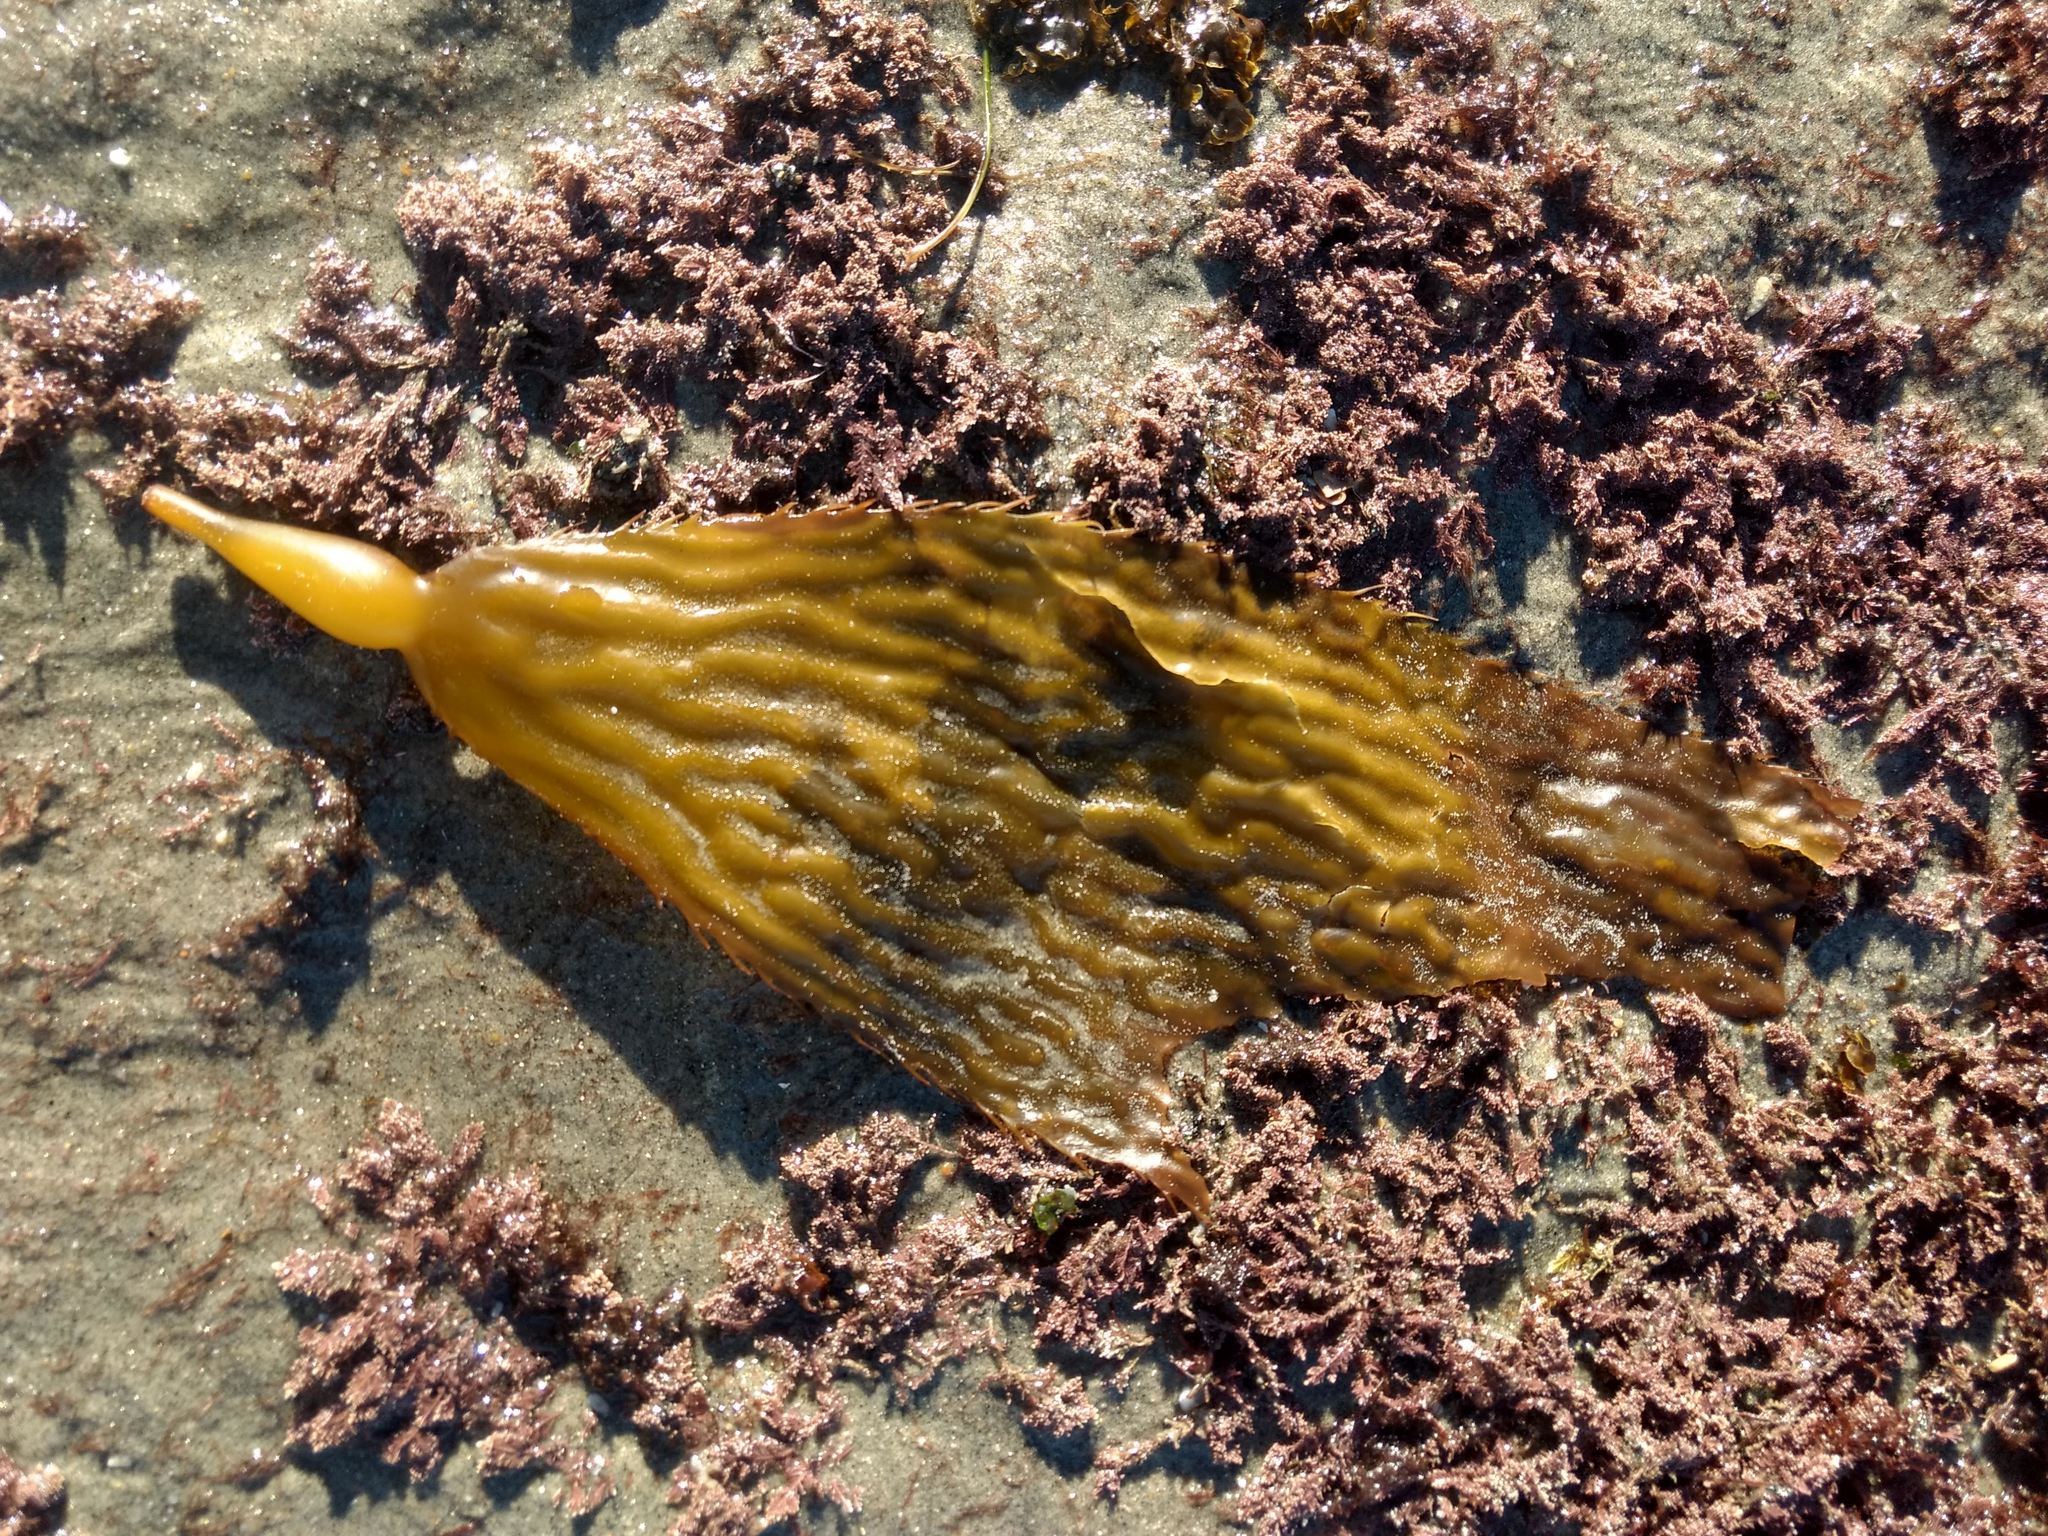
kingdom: Chromista
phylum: Ochrophyta
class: Phaeophyceae
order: Laminariales
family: Laminariaceae
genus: Macrocystis
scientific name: Macrocystis pyrifera
